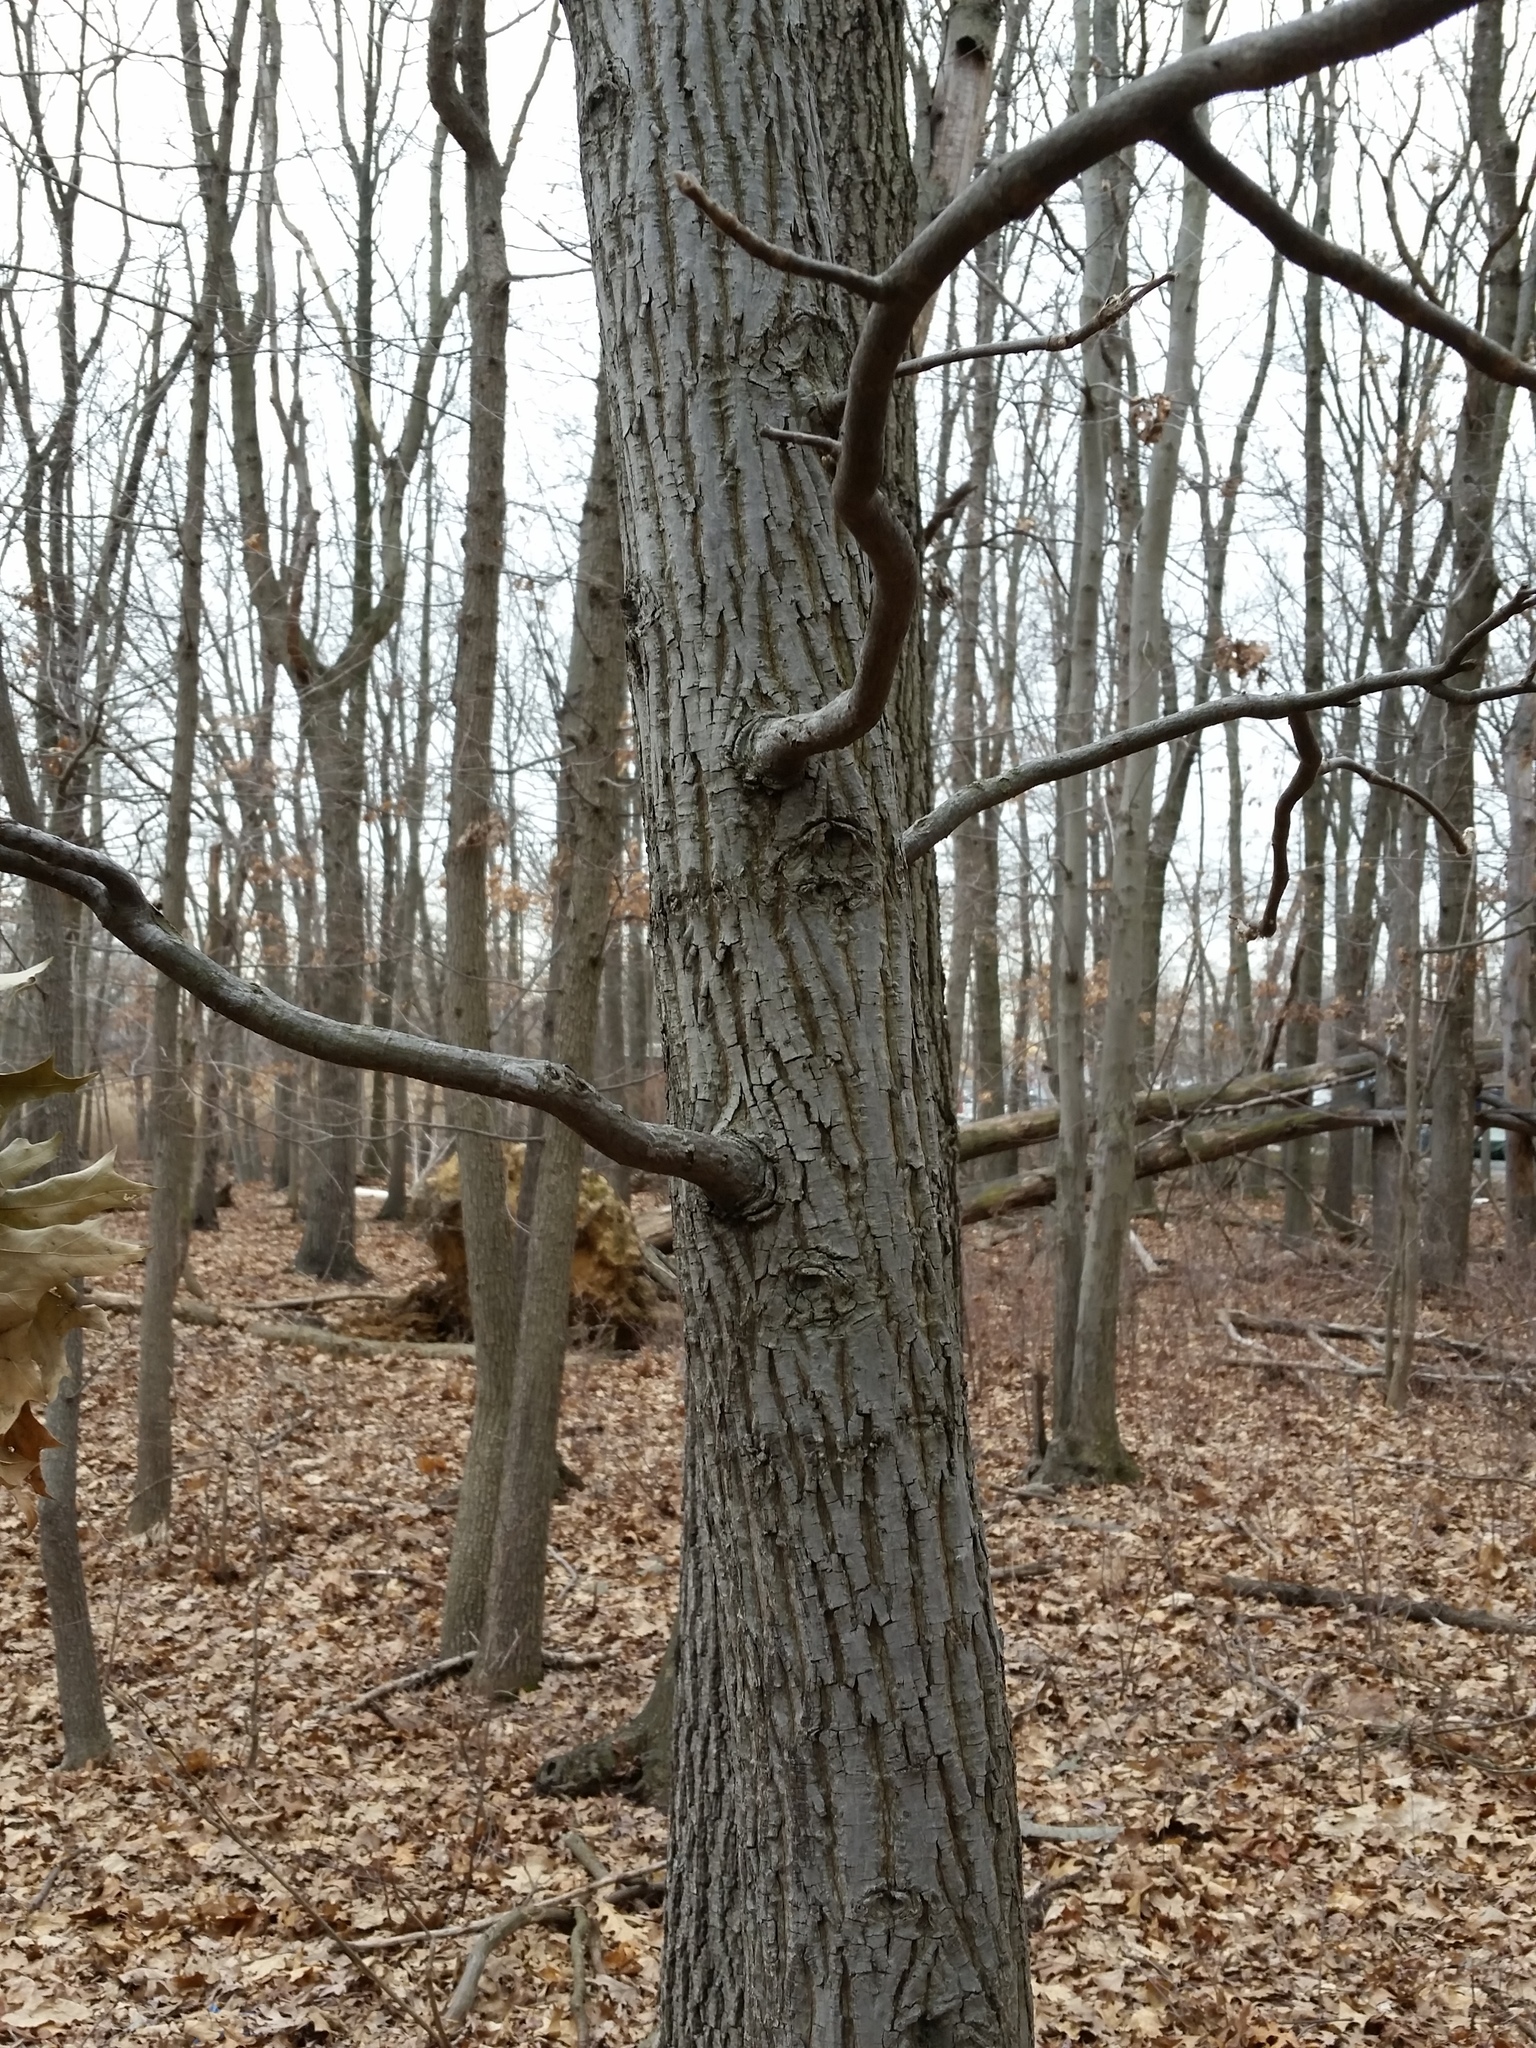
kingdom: Plantae
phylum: Tracheophyta
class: Magnoliopsida
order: Fagales
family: Juglandaceae
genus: Carya
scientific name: Carya alba
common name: Mockernut hickory
